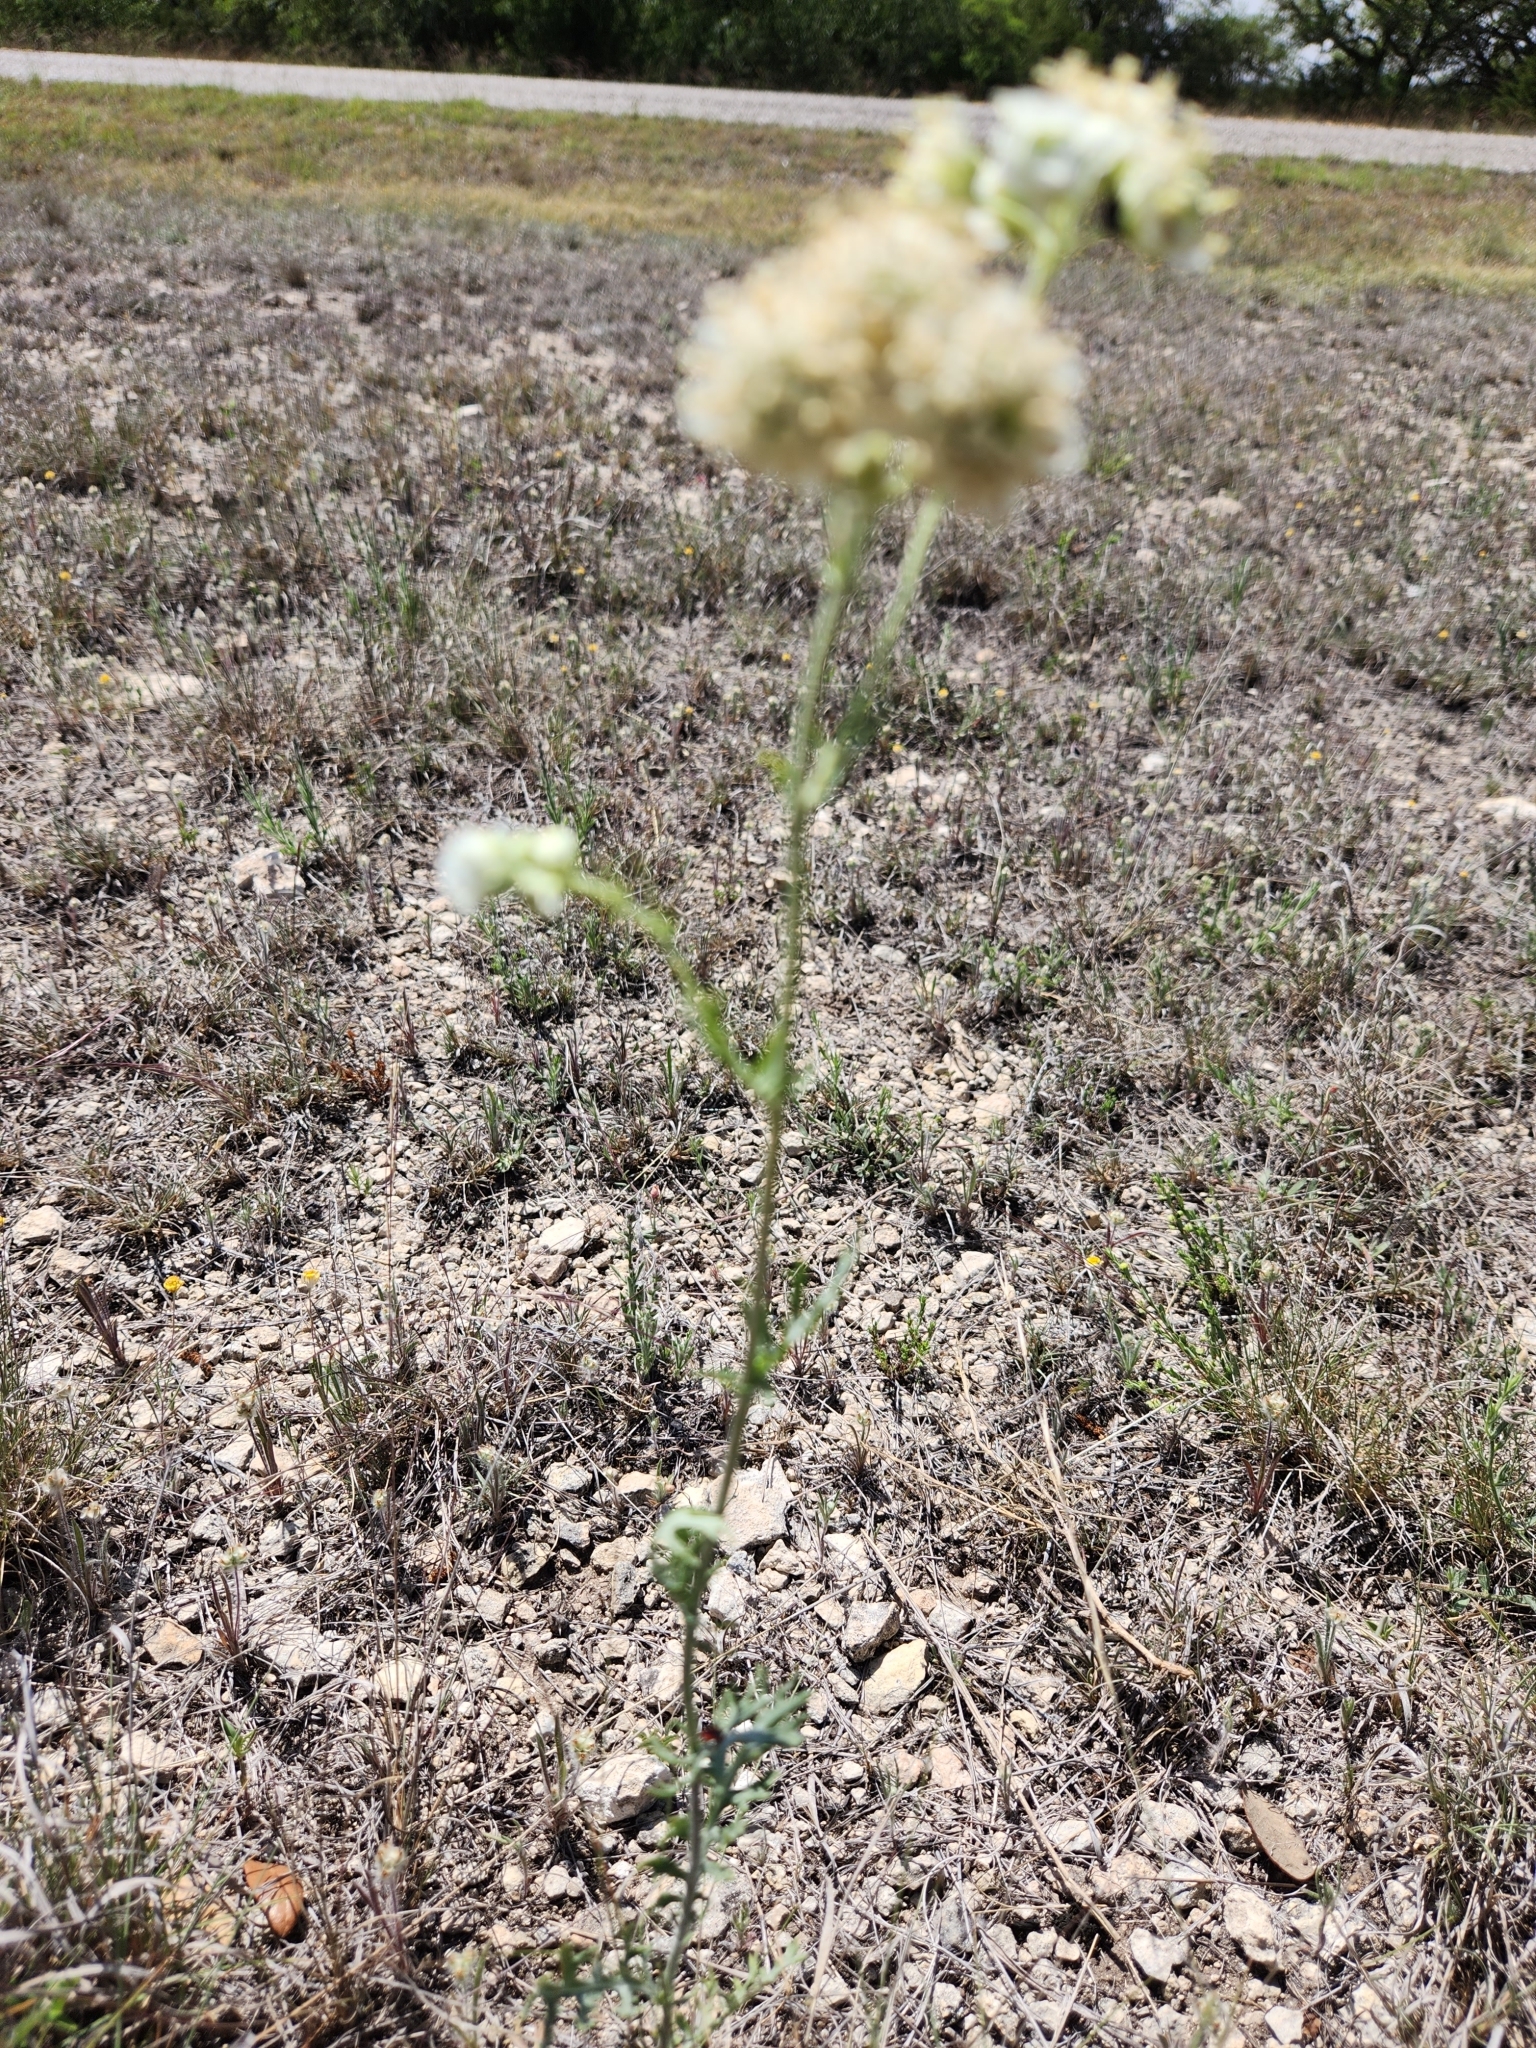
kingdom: Plantae
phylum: Tracheophyta
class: Magnoliopsida
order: Asterales
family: Asteraceae
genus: Hymenopappus
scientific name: Hymenopappus scabiosaeus
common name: Carolina woollywhite
